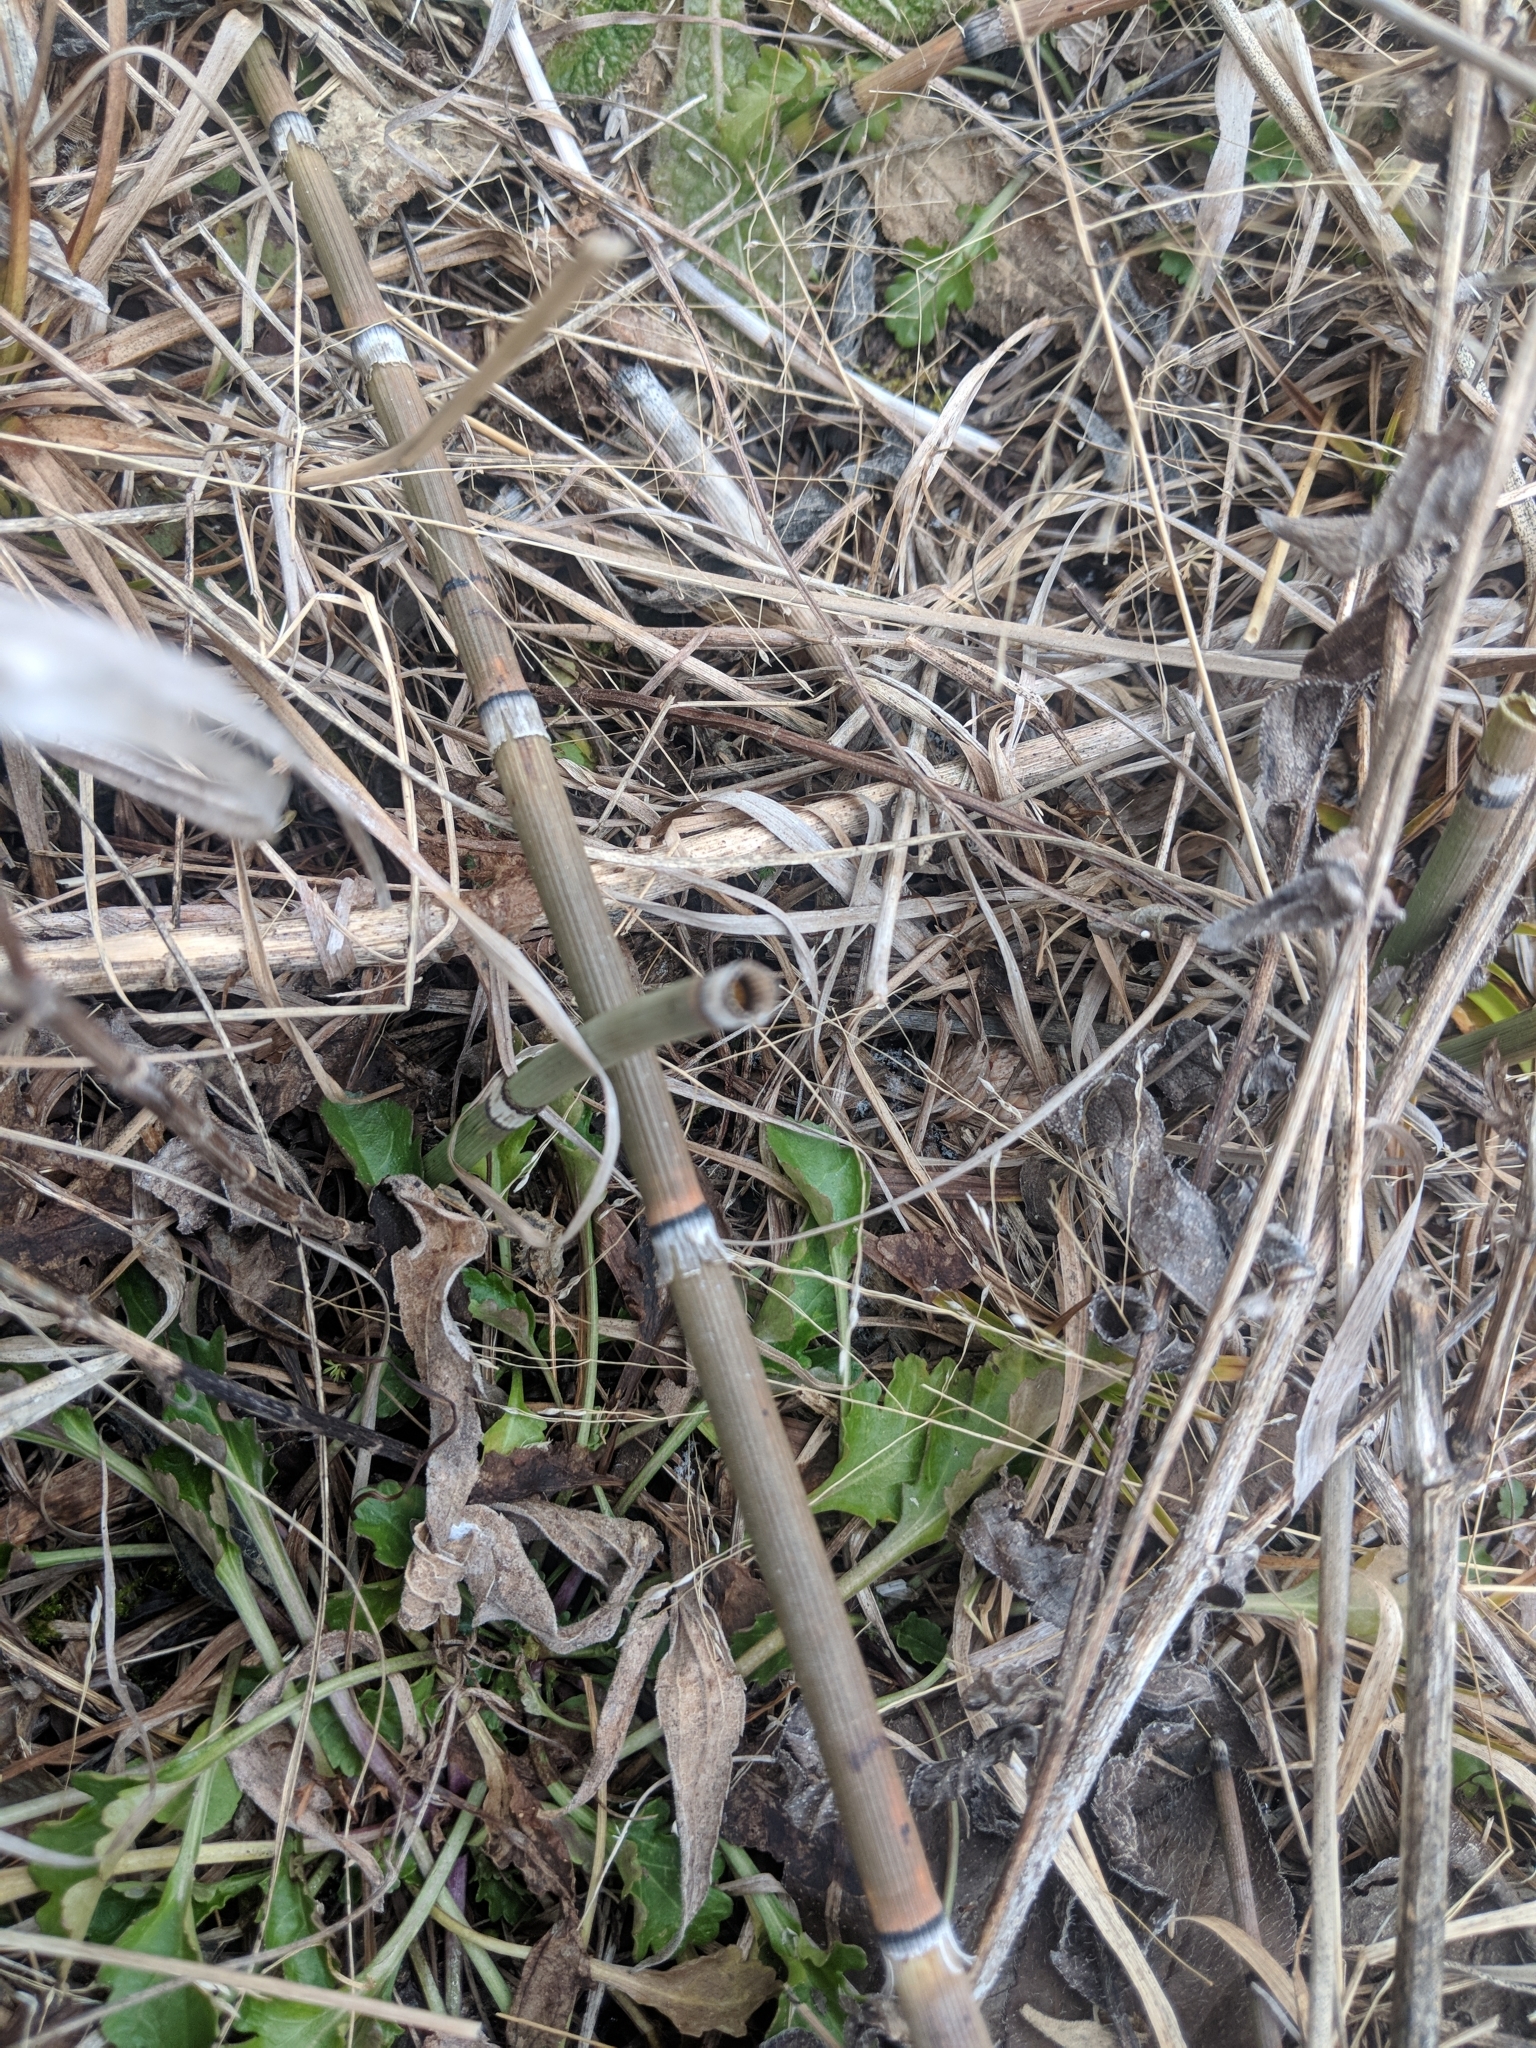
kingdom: Plantae
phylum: Tracheophyta
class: Polypodiopsida
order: Equisetales
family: Equisetaceae
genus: Equisetum
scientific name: Equisetum hyemale
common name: Rough horsetail
